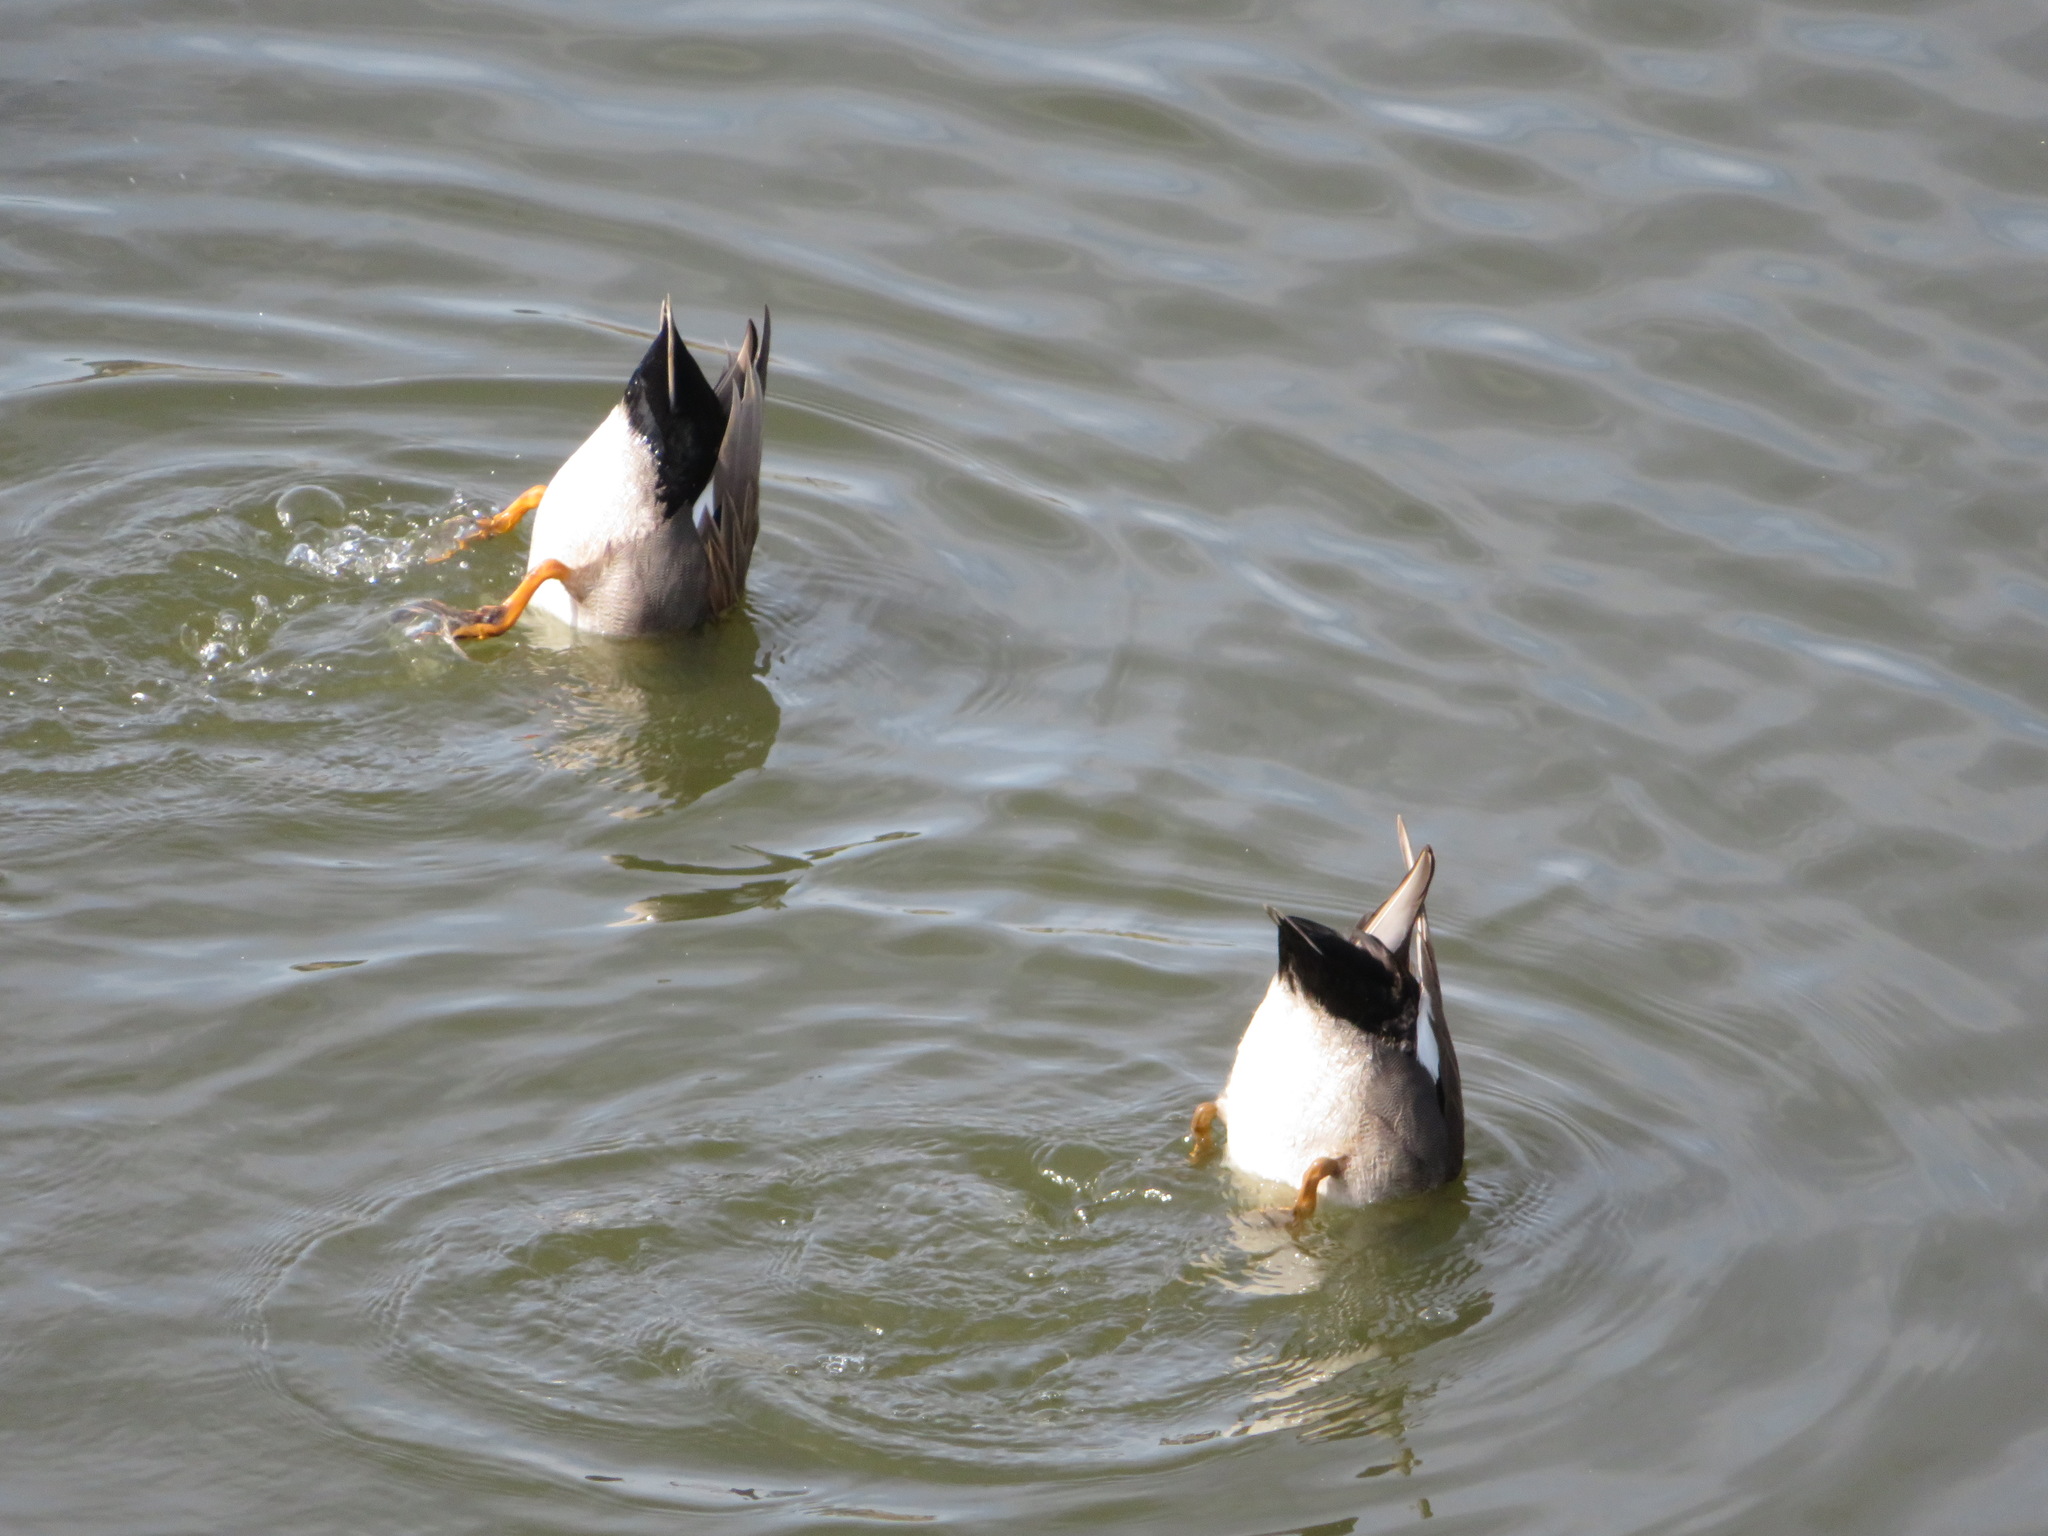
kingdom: Animalia
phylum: Chordata
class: Aves
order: Anseriformes
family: Anatidae
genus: Mareca
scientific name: Mareca strepera
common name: Gadwall
